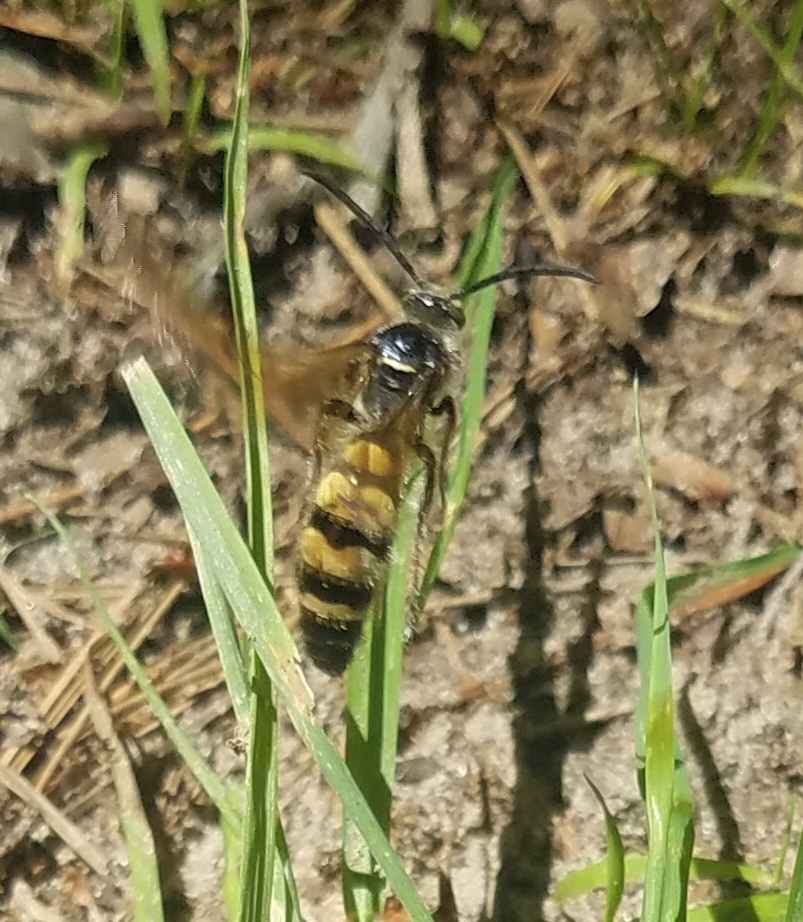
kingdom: Animalia
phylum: Arthropoda
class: Insecta
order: Hymenoptera
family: Scoliidae
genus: Dielis
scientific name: Dielis
